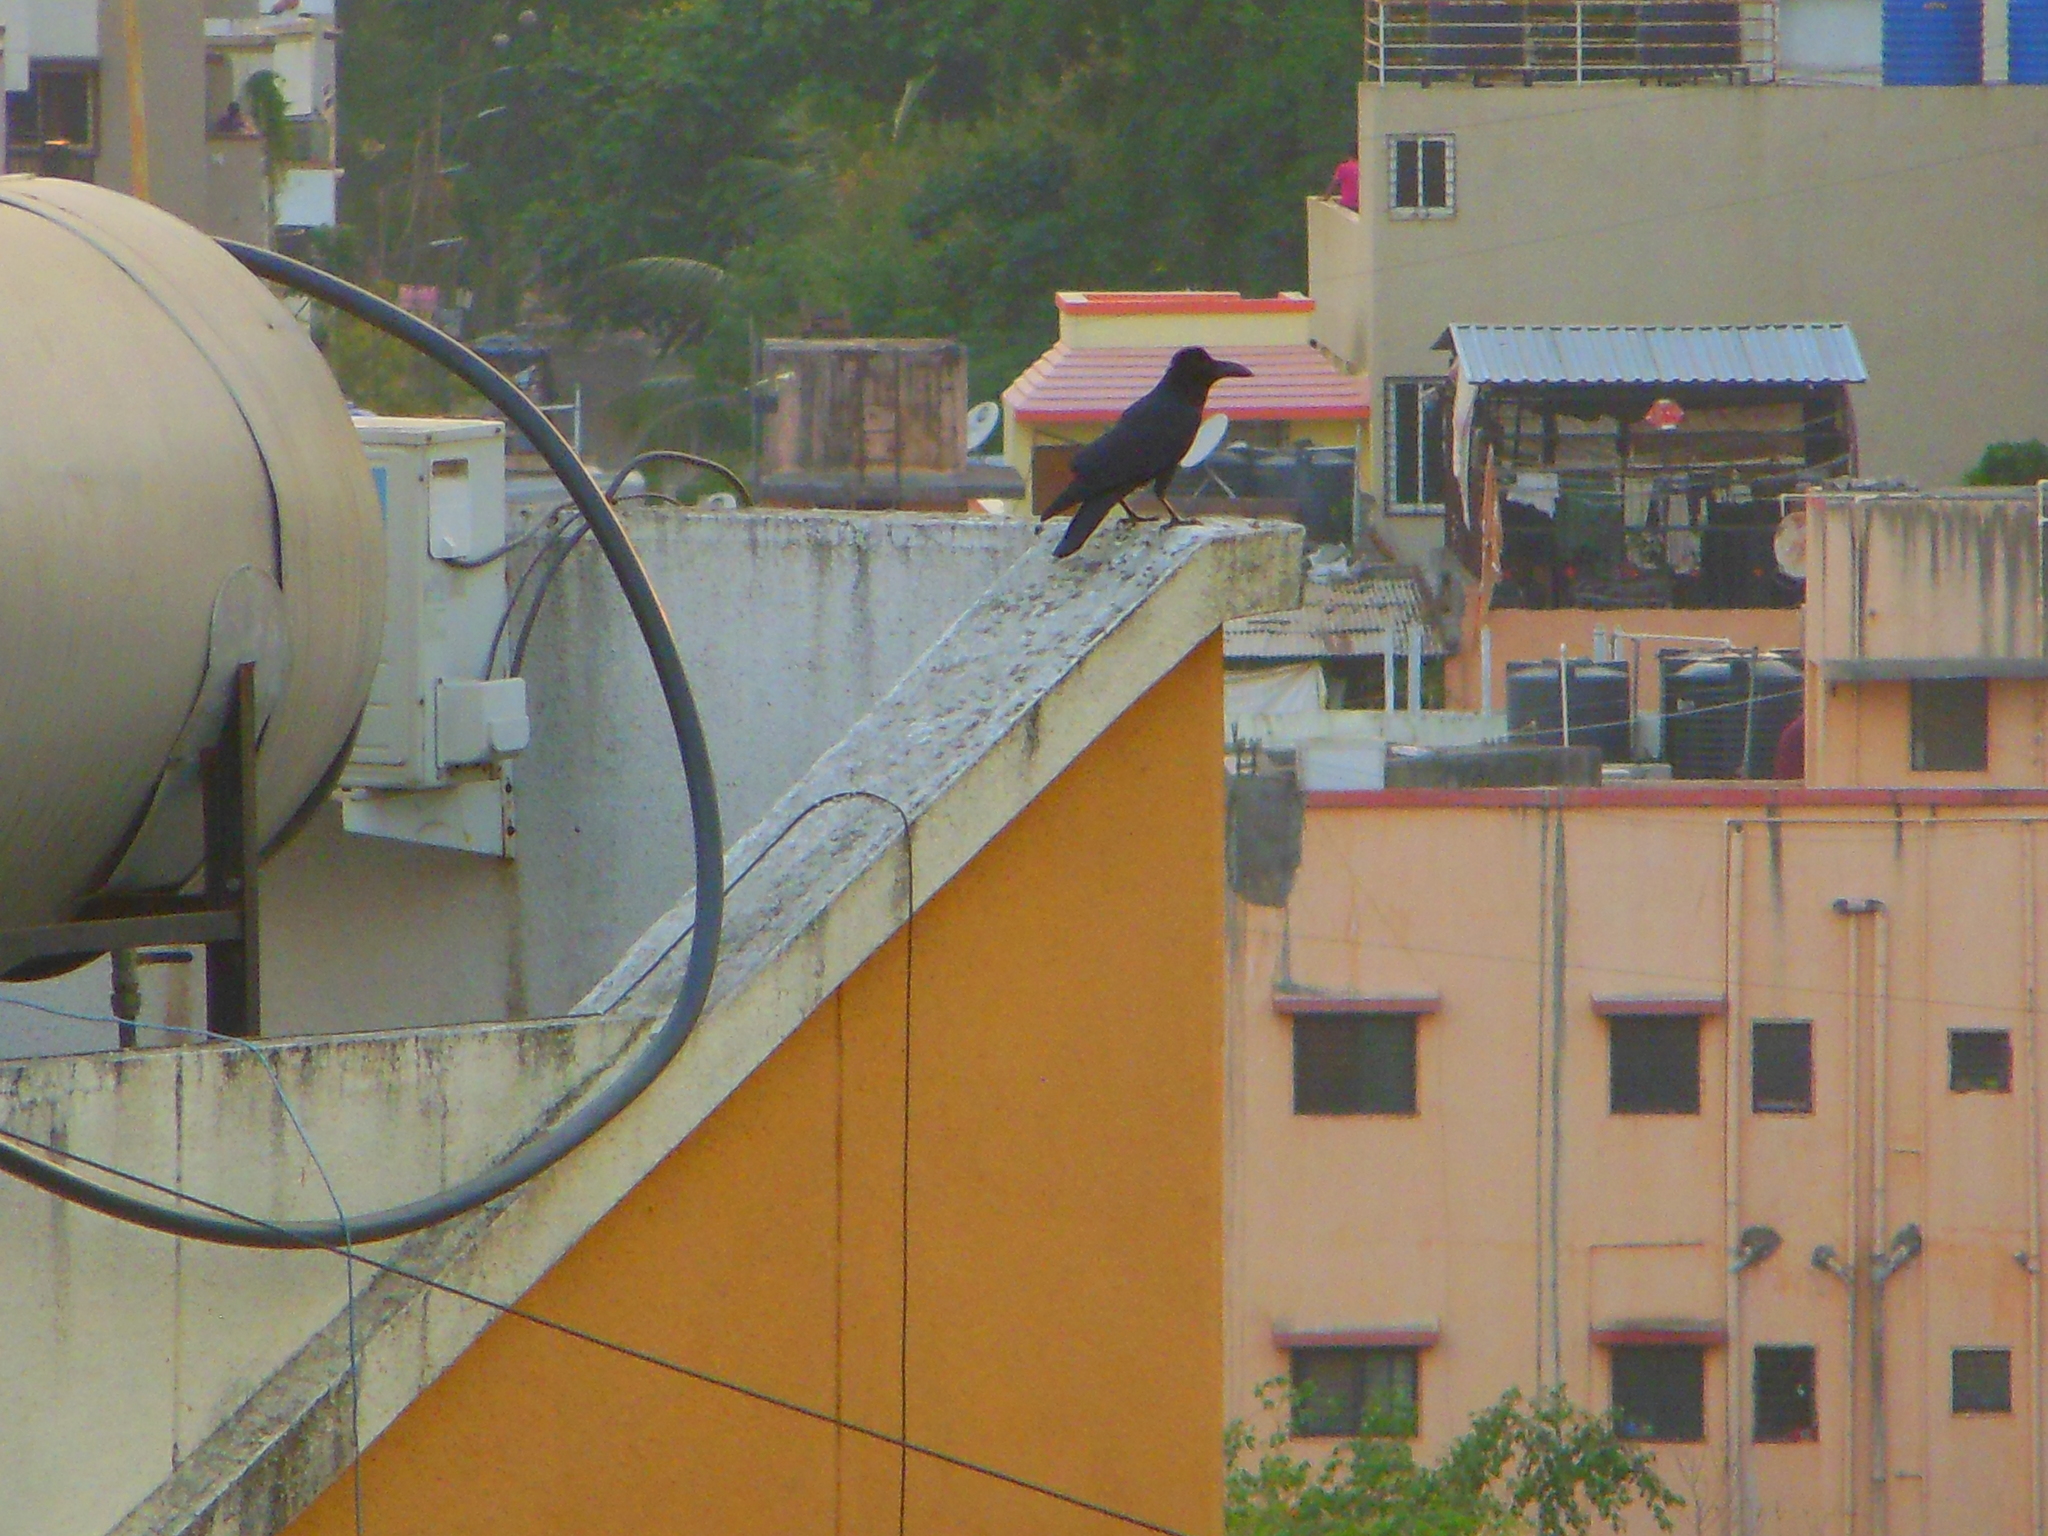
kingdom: Animalia
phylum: Chordata
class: Aves
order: Passeriformes
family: Corvidae
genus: Corvus
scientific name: Corvus macrorhynchos
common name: Large-billed crow
